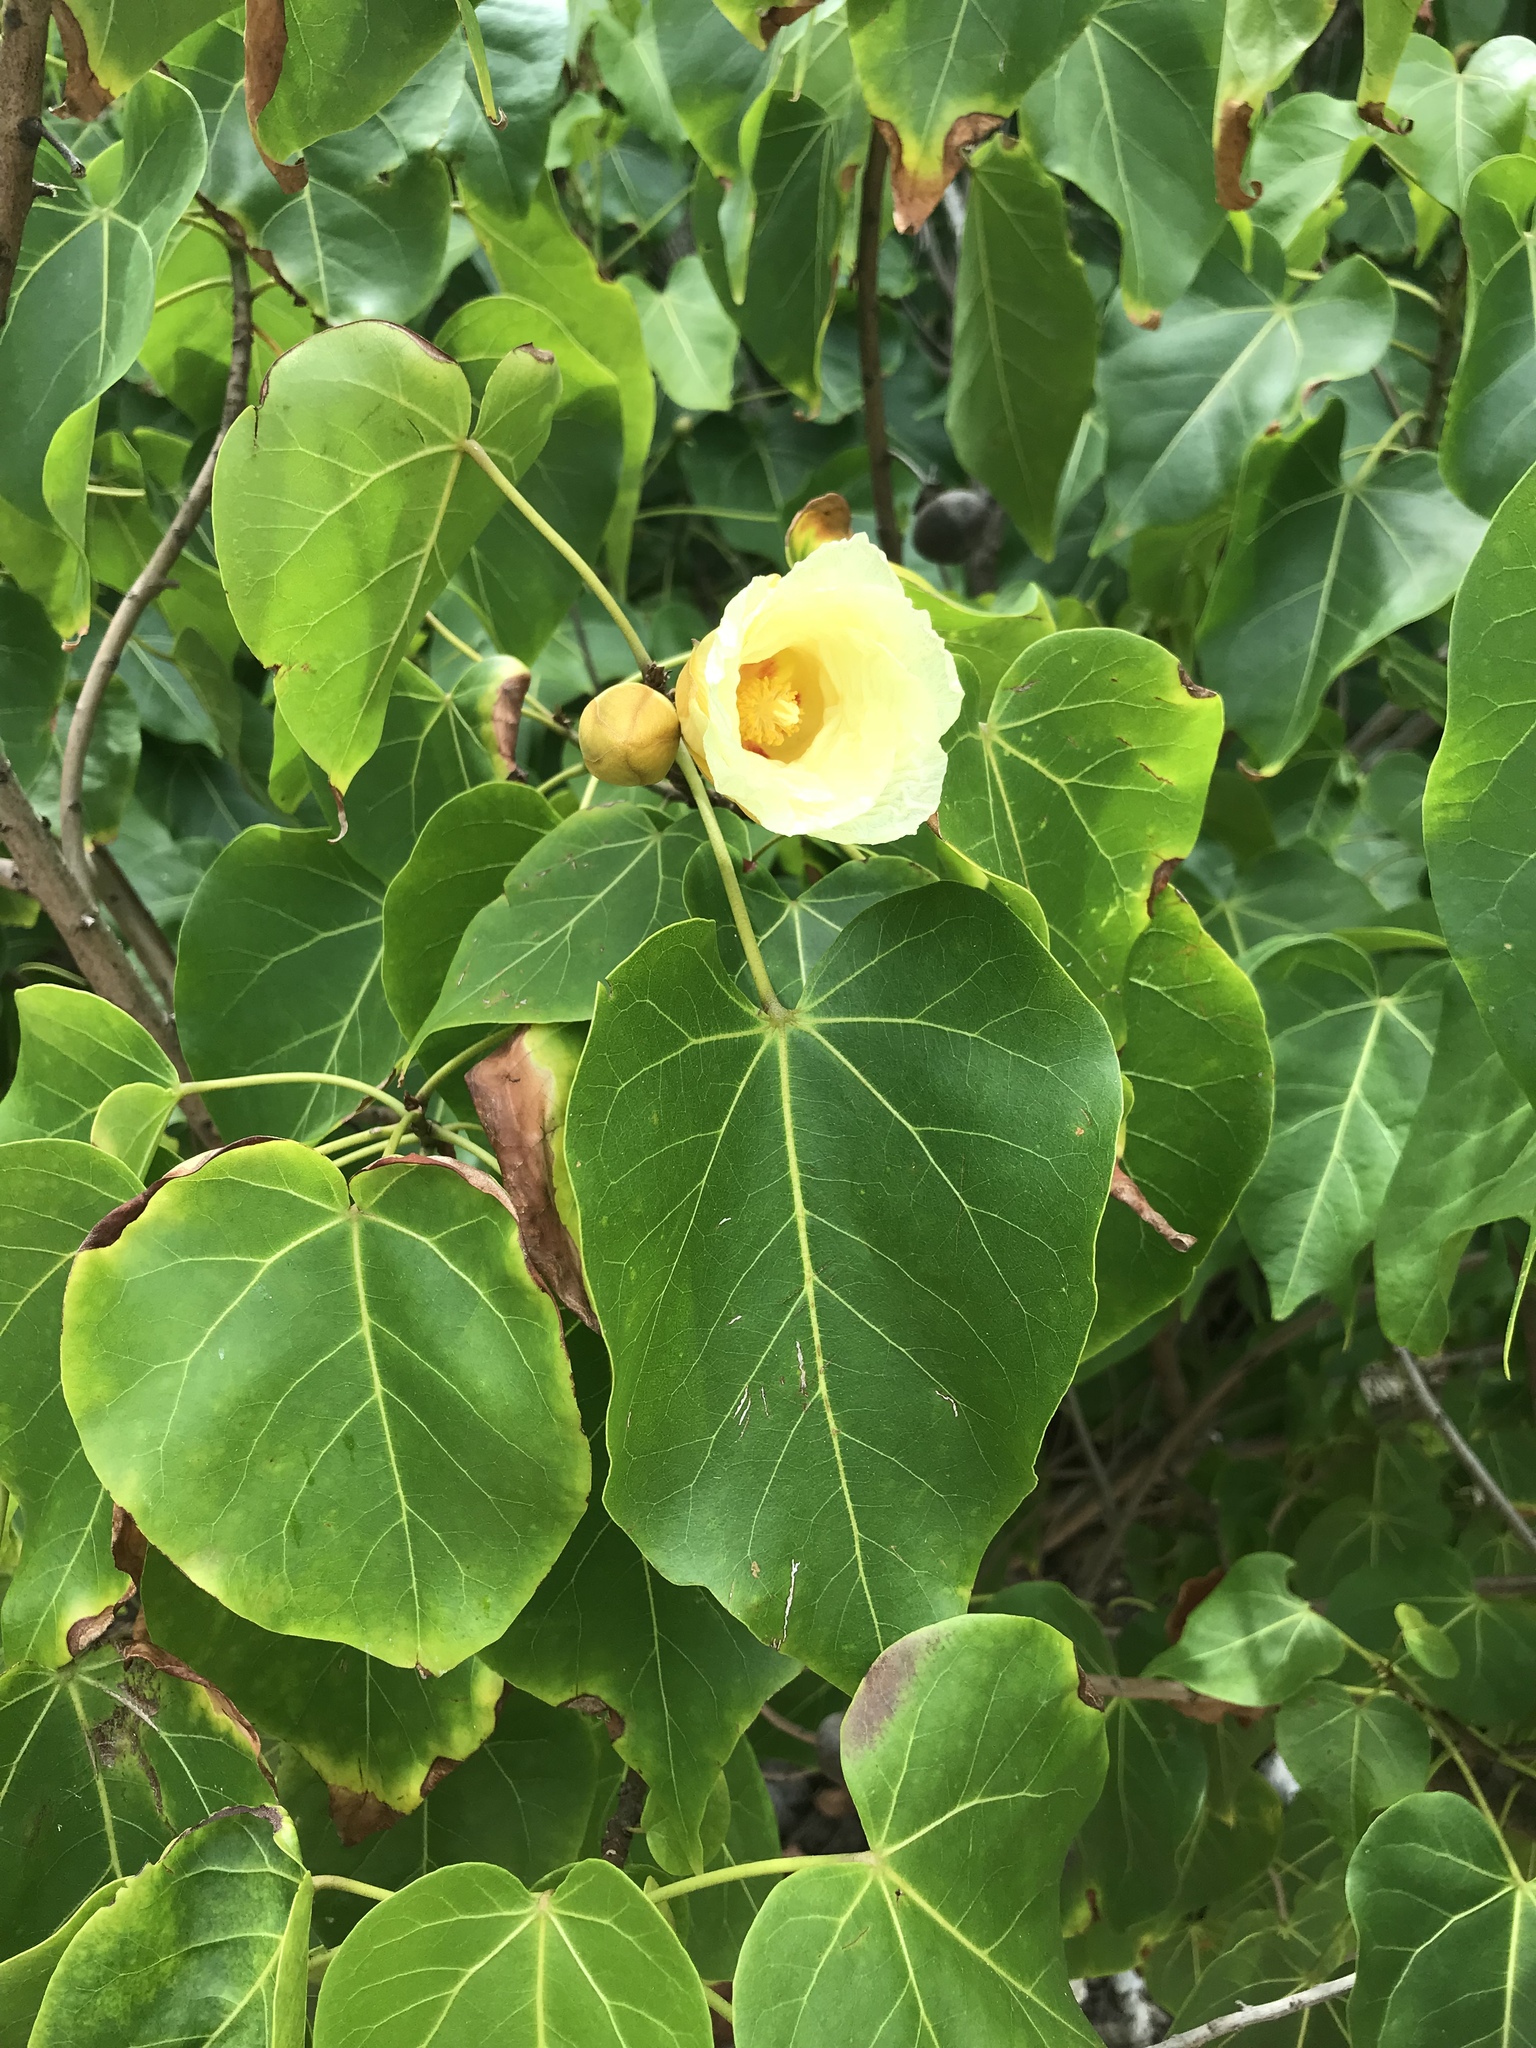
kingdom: Plantae
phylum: Tracheophyta
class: Magnoliopsida
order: Malvales
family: Malvaceae
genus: Thespesia
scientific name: Thespesia populnea
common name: Seaside mahoe
